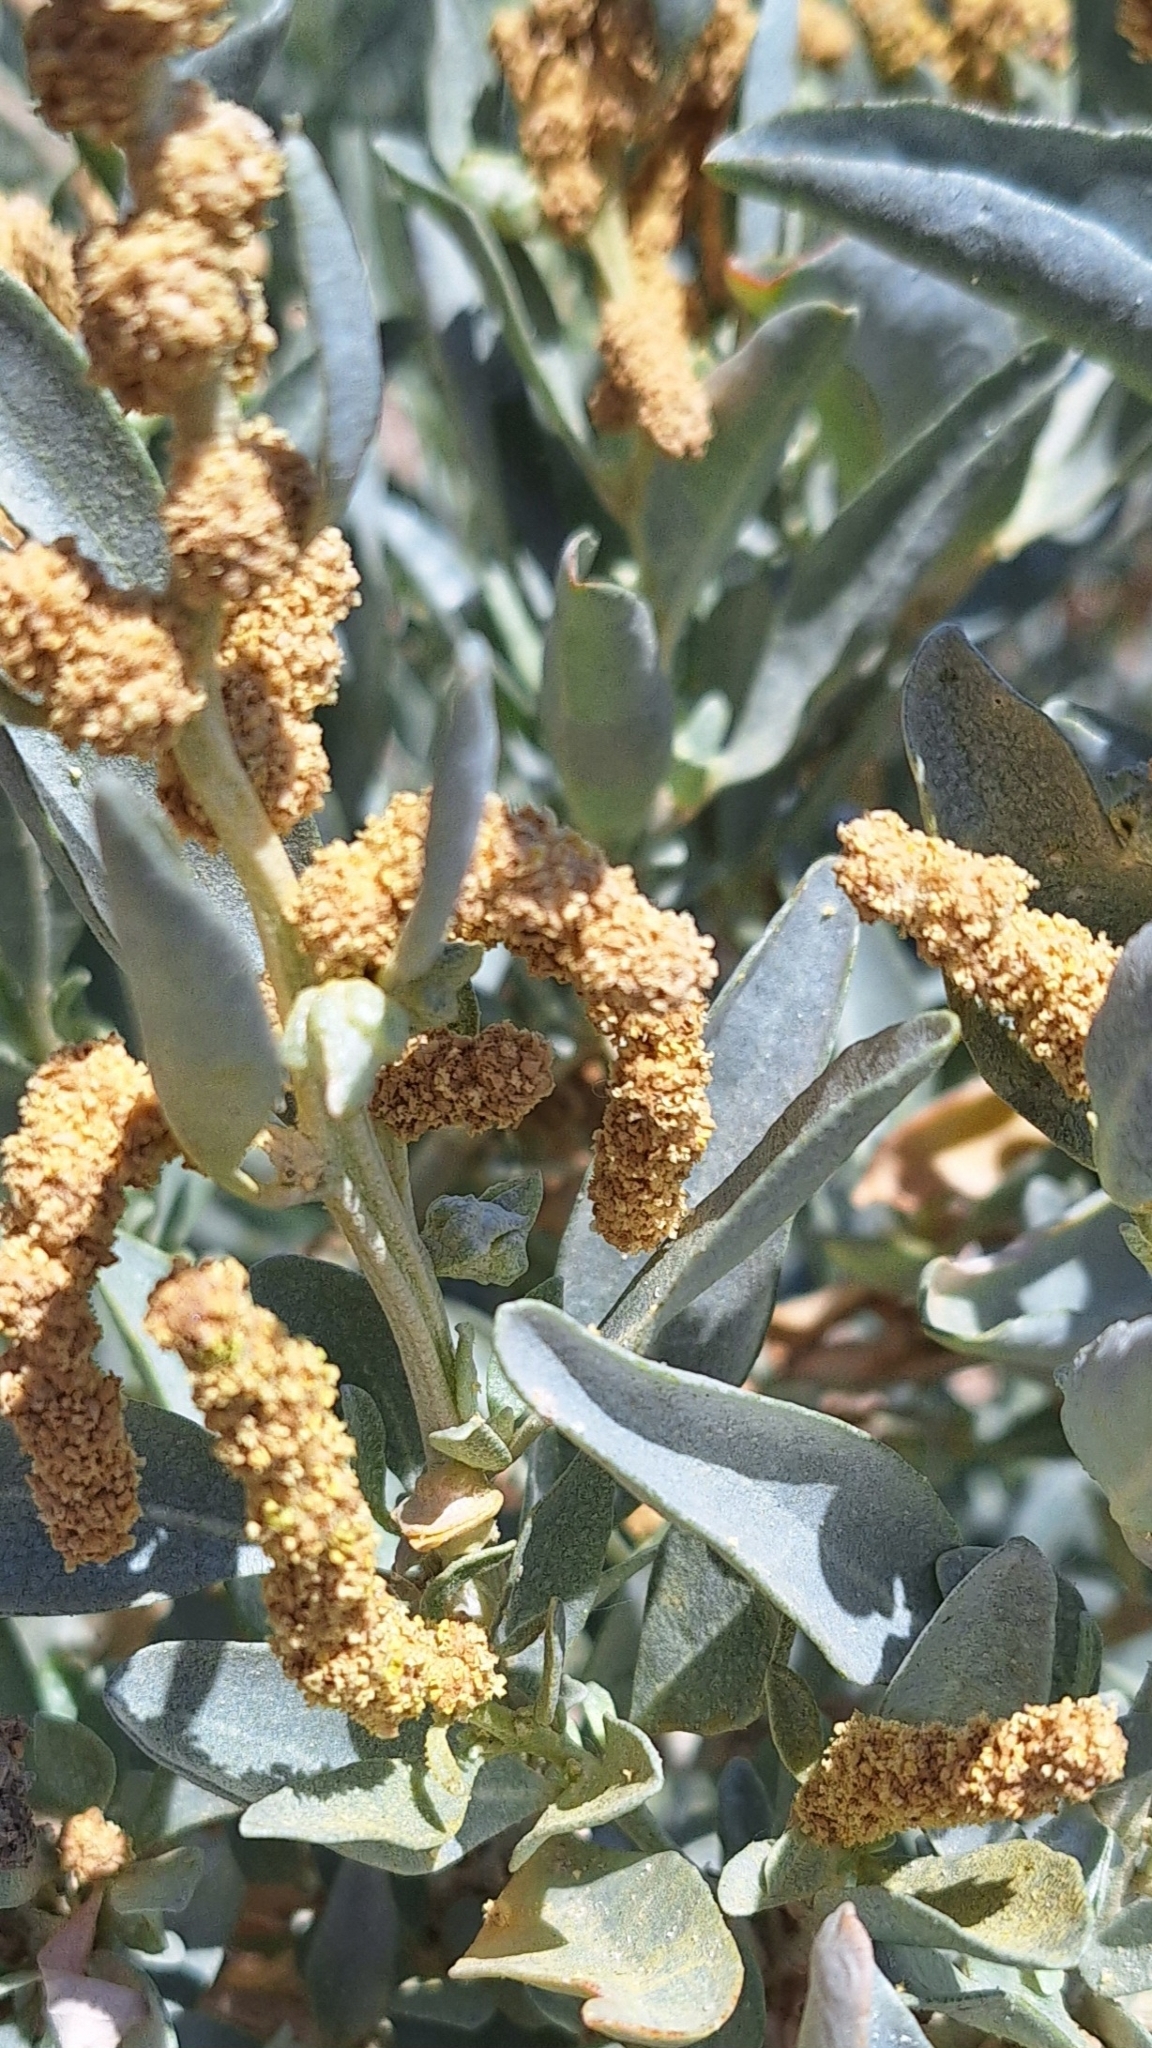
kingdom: Plantae
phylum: Tracheophyta
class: Magnoliopsida
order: Caryophyllales
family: Amaranthaceae
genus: Atriplex
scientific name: Atriplex cinerea
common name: Grey saltbush
